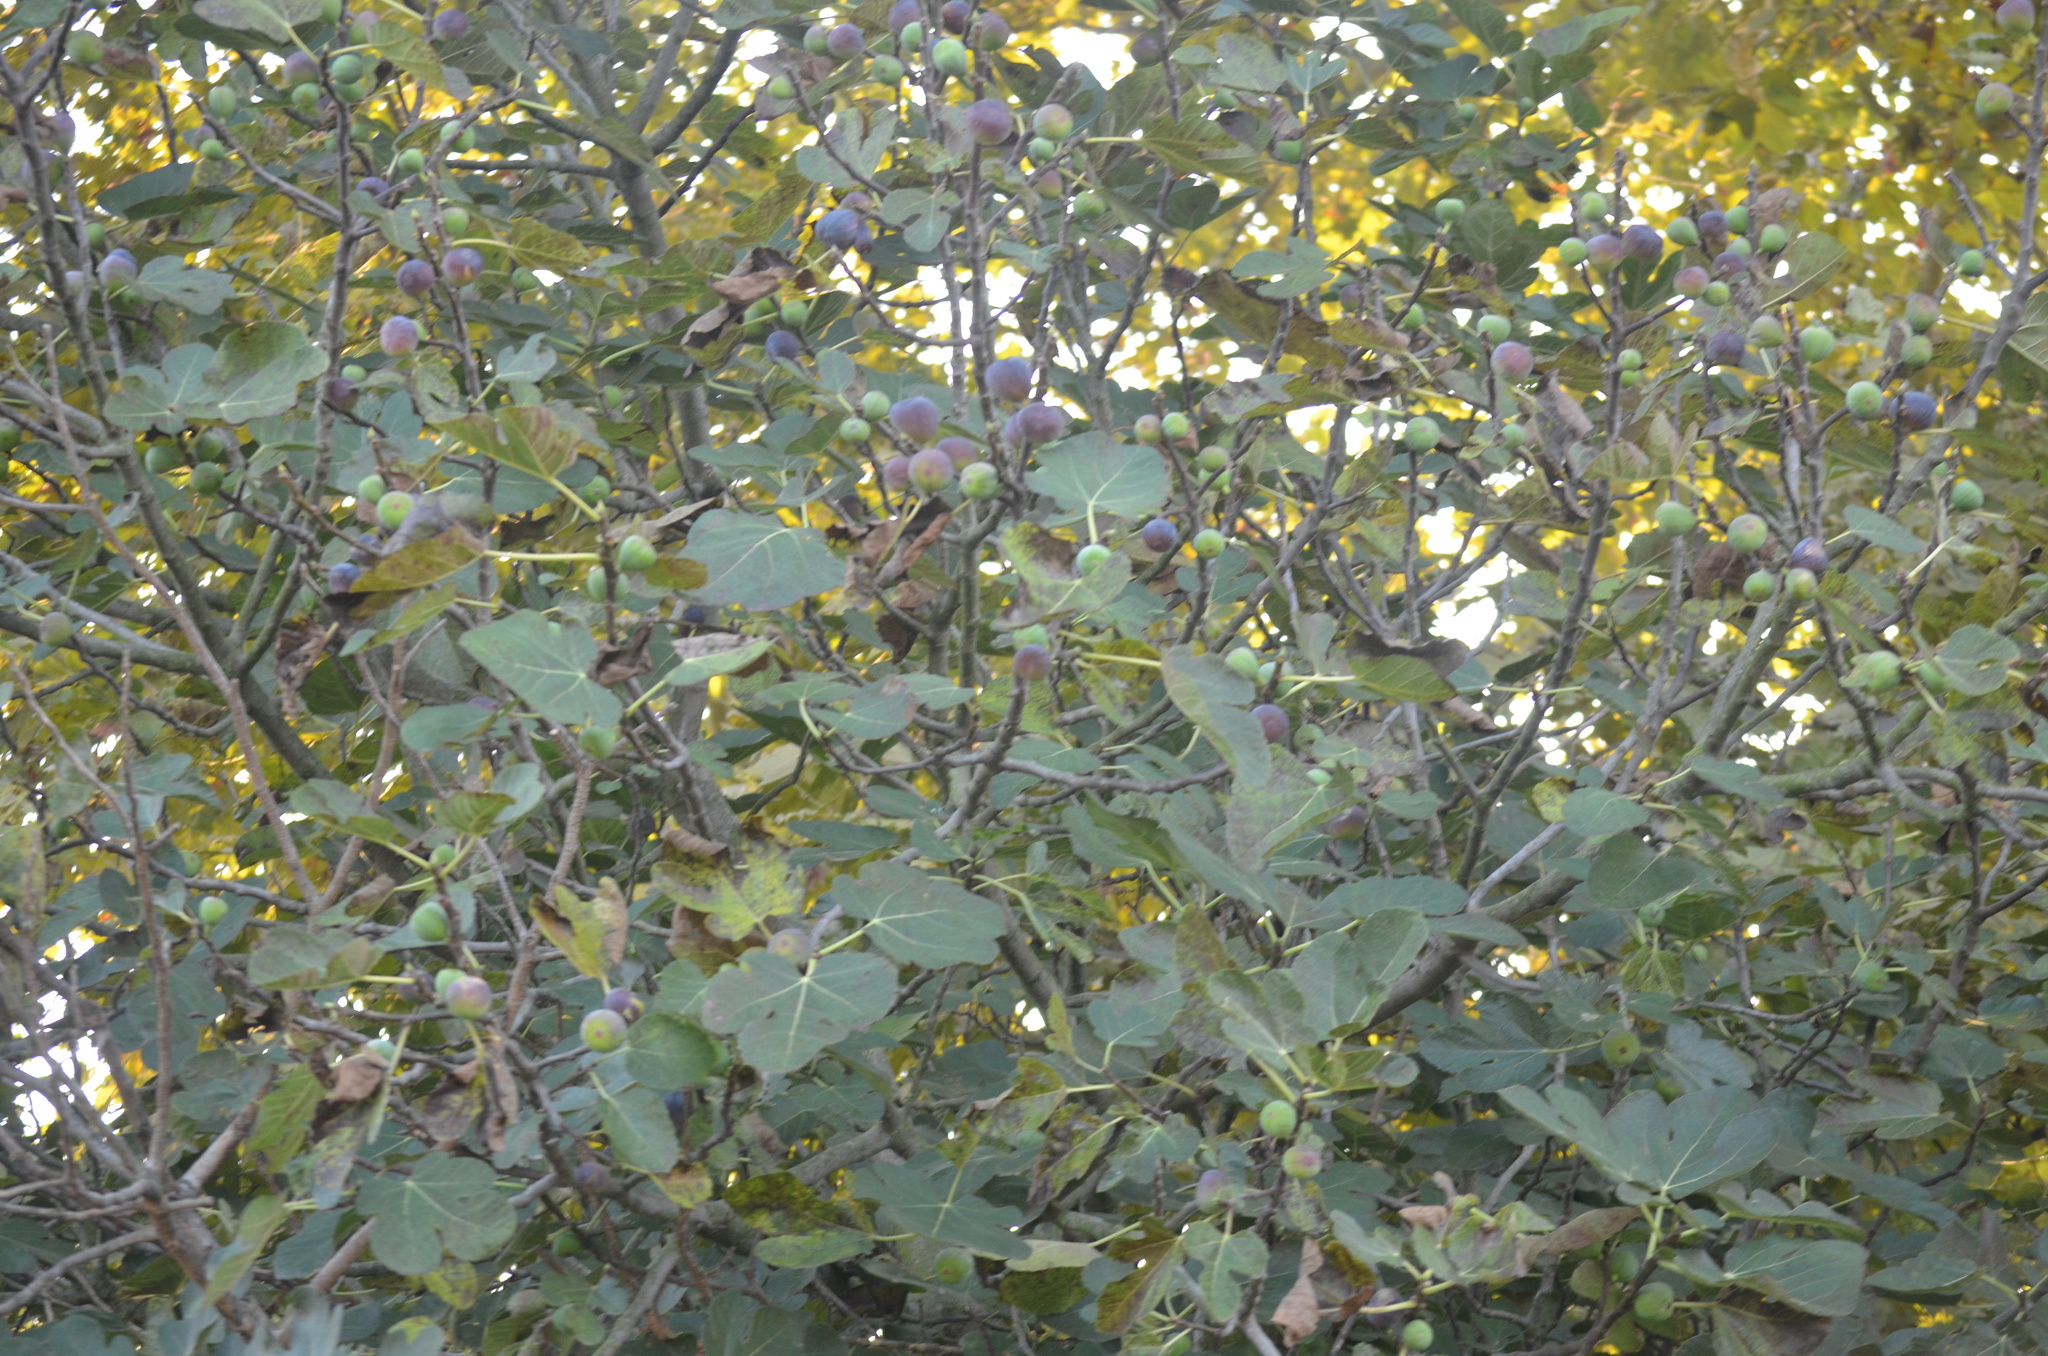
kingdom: Plantae
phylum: Tracheophyta
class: Magnoliopsida
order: Rosales
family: Moraceae
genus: Ficus
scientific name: Ficus carica
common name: Fig
